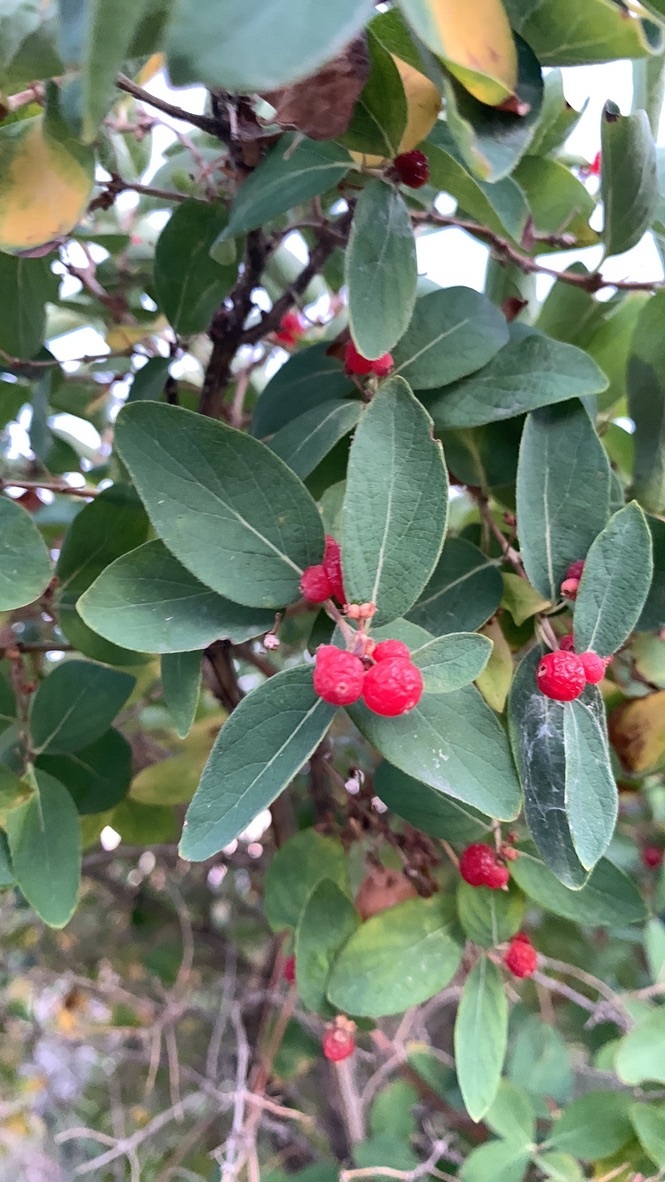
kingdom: Plantae
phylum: Tracheophyta
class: Magnoliopsida
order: Dipsacales
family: Caprifoliaceae
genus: Lonicera
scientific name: Lonicera tatarica
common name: Tatarian honeysuckle
